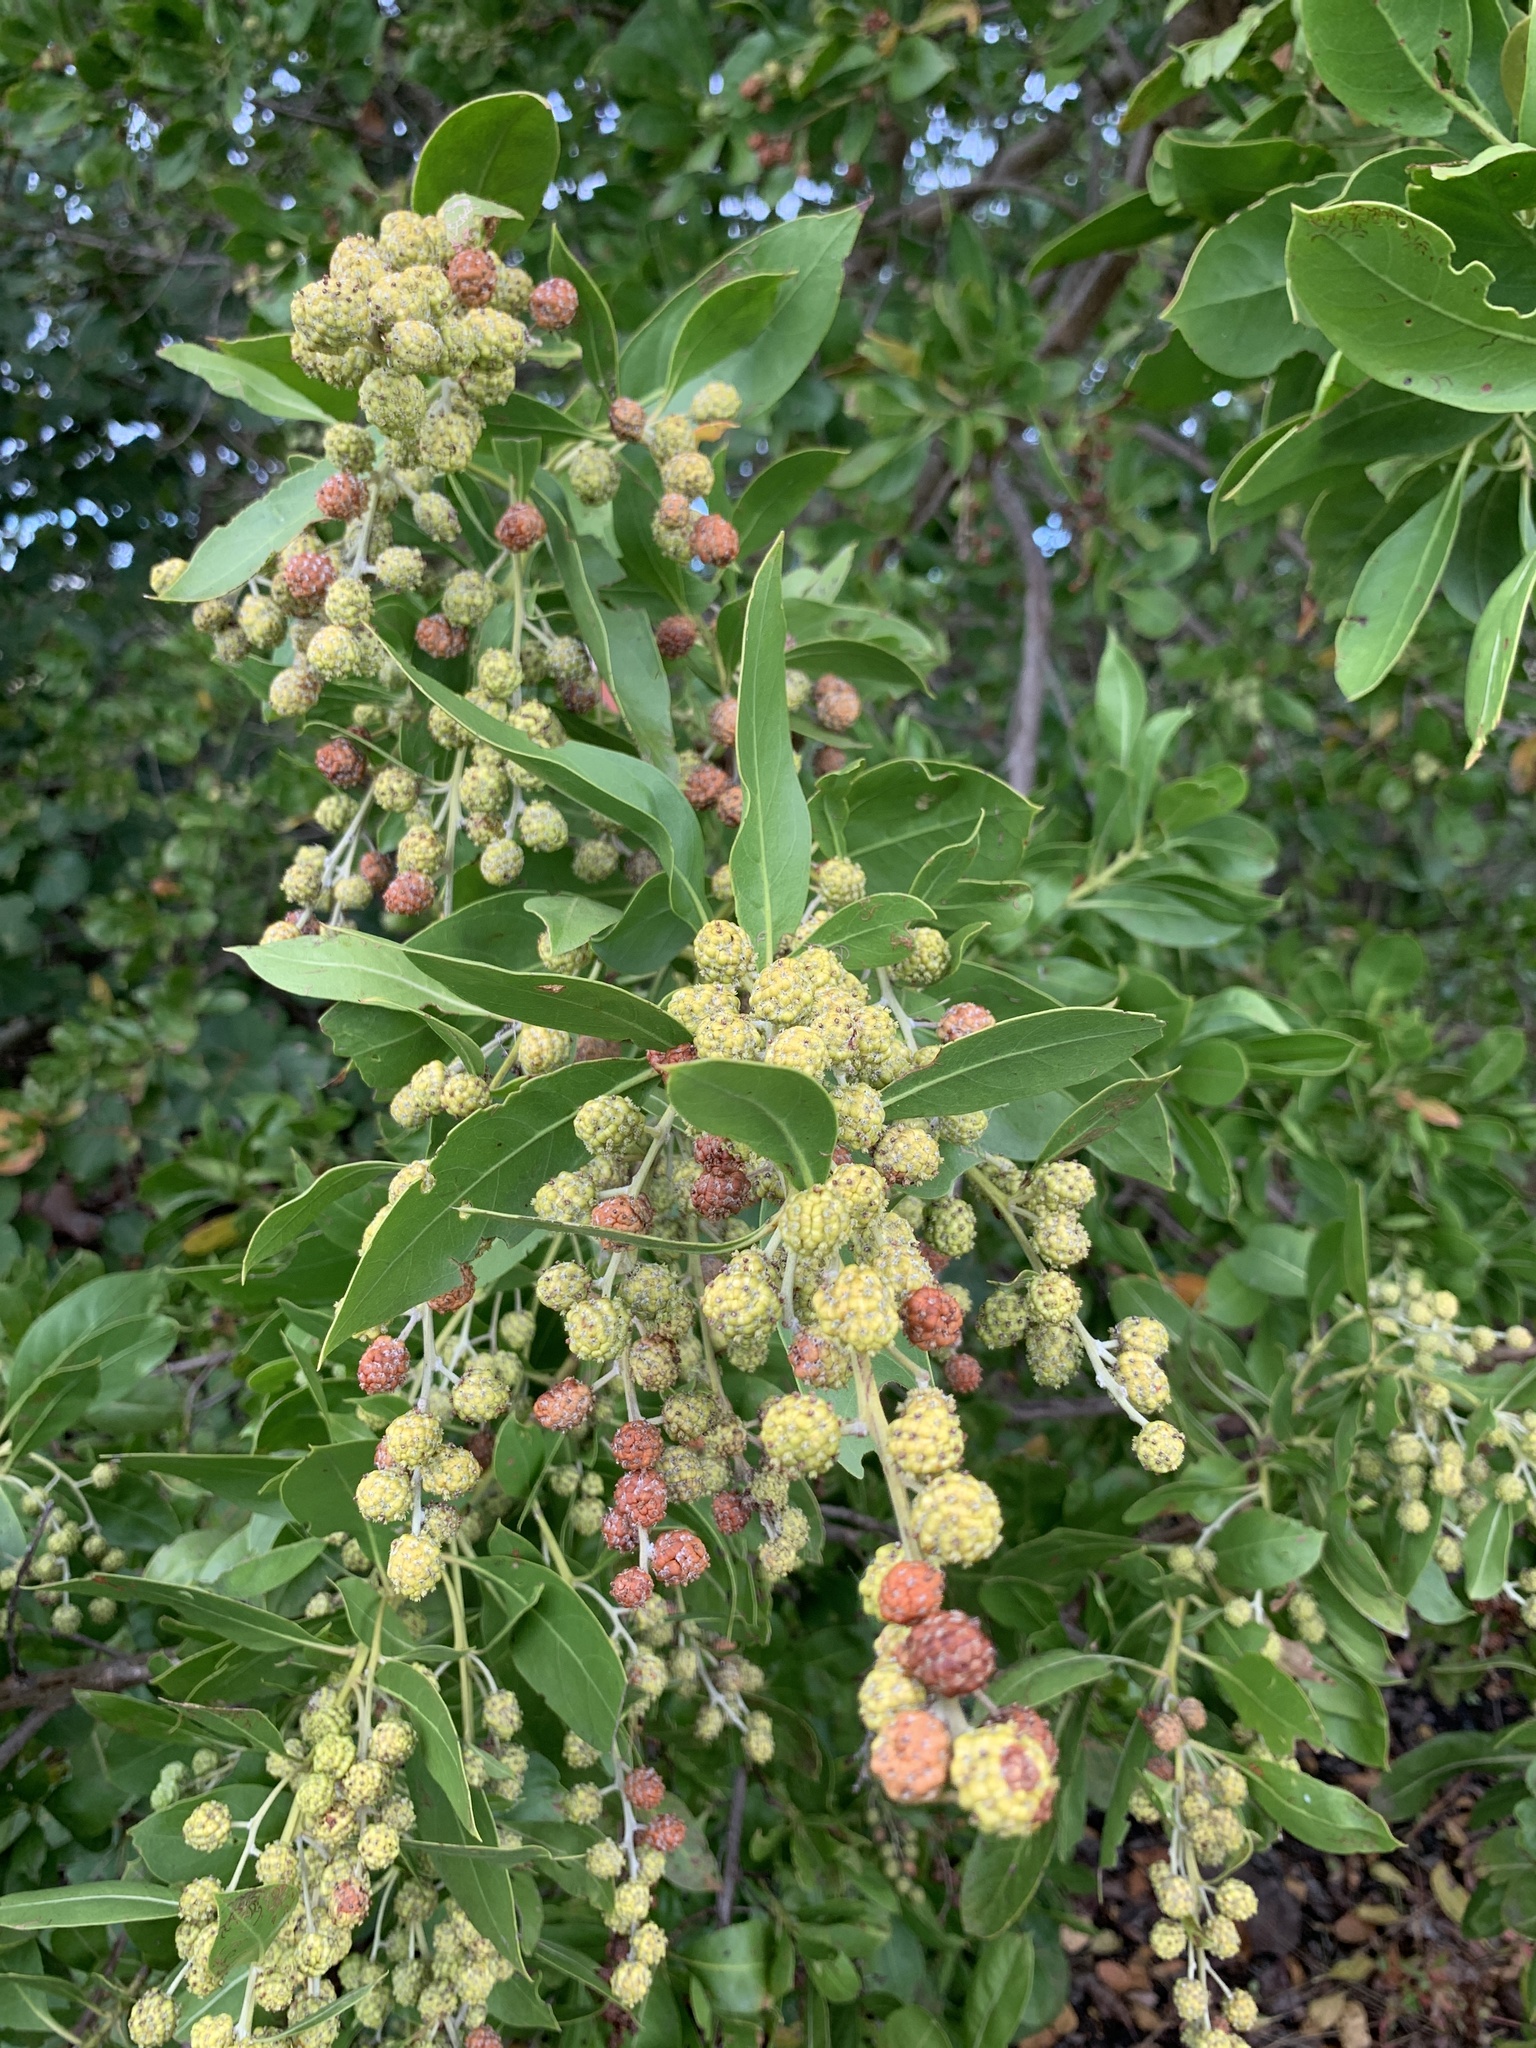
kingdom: Plantae
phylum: Tracheophyta
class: Magnoliopsida
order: Myrtales
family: Combretaceae
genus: Conocarpus
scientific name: Conocarpus erectus
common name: Button mangrove
